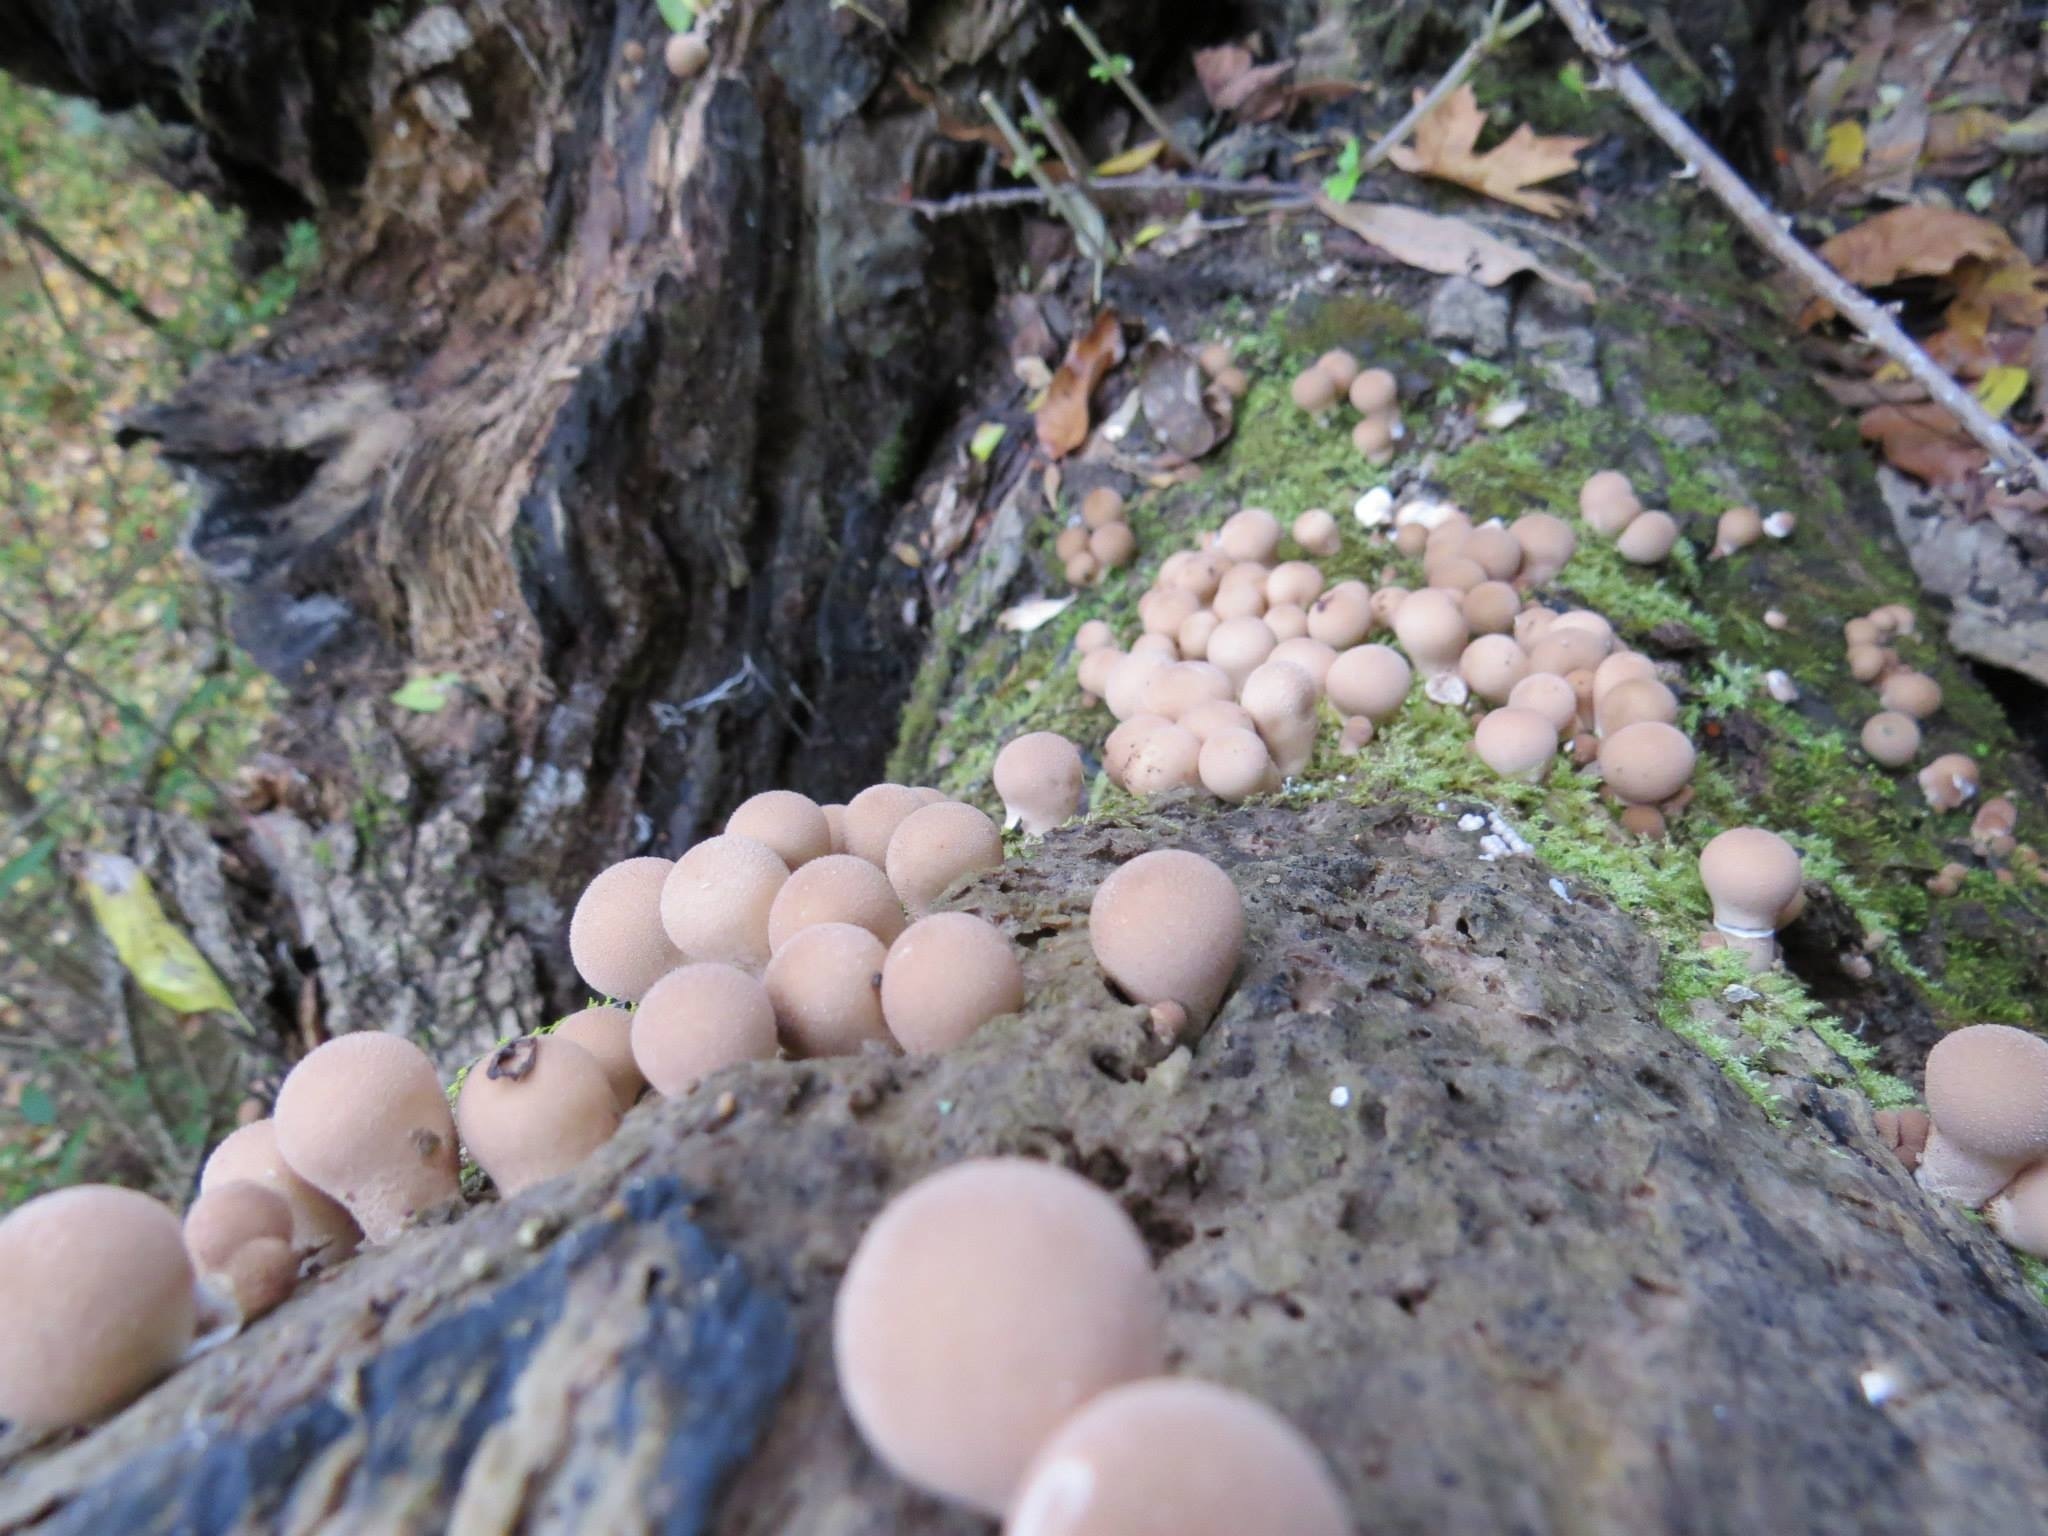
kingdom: Fungi
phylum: Basidiomycota
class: Agaricomycetes
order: Agaricales
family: Lycoperdaceae
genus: Apioperdon
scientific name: Apioperdon pyriforme
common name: Pear-shaped puffball
